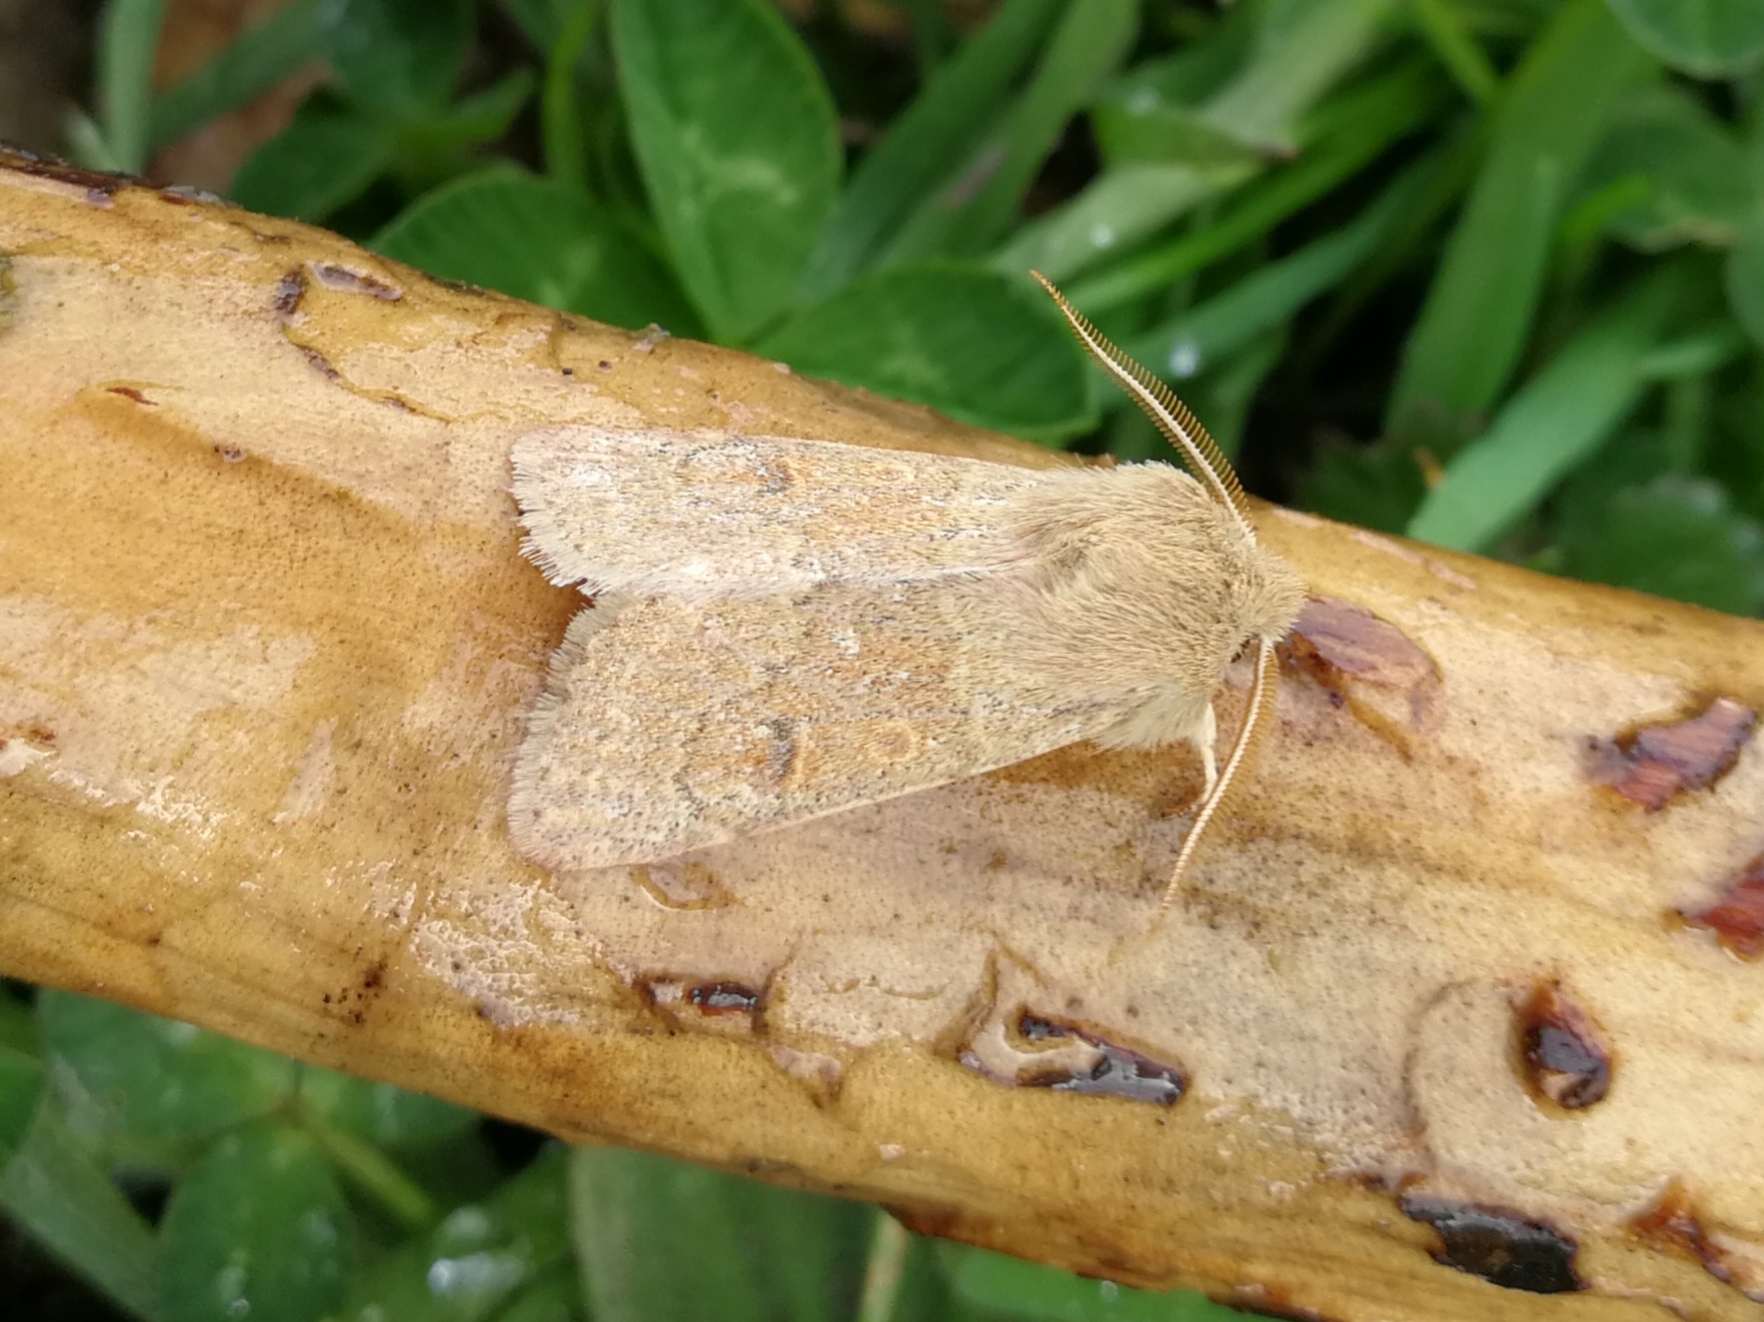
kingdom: Animalia
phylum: Arthropoda
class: Insecta
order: Lepidoptera
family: Noctuidae
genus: Orthosia
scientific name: Orthosia miniosa
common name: Blossom underwing
